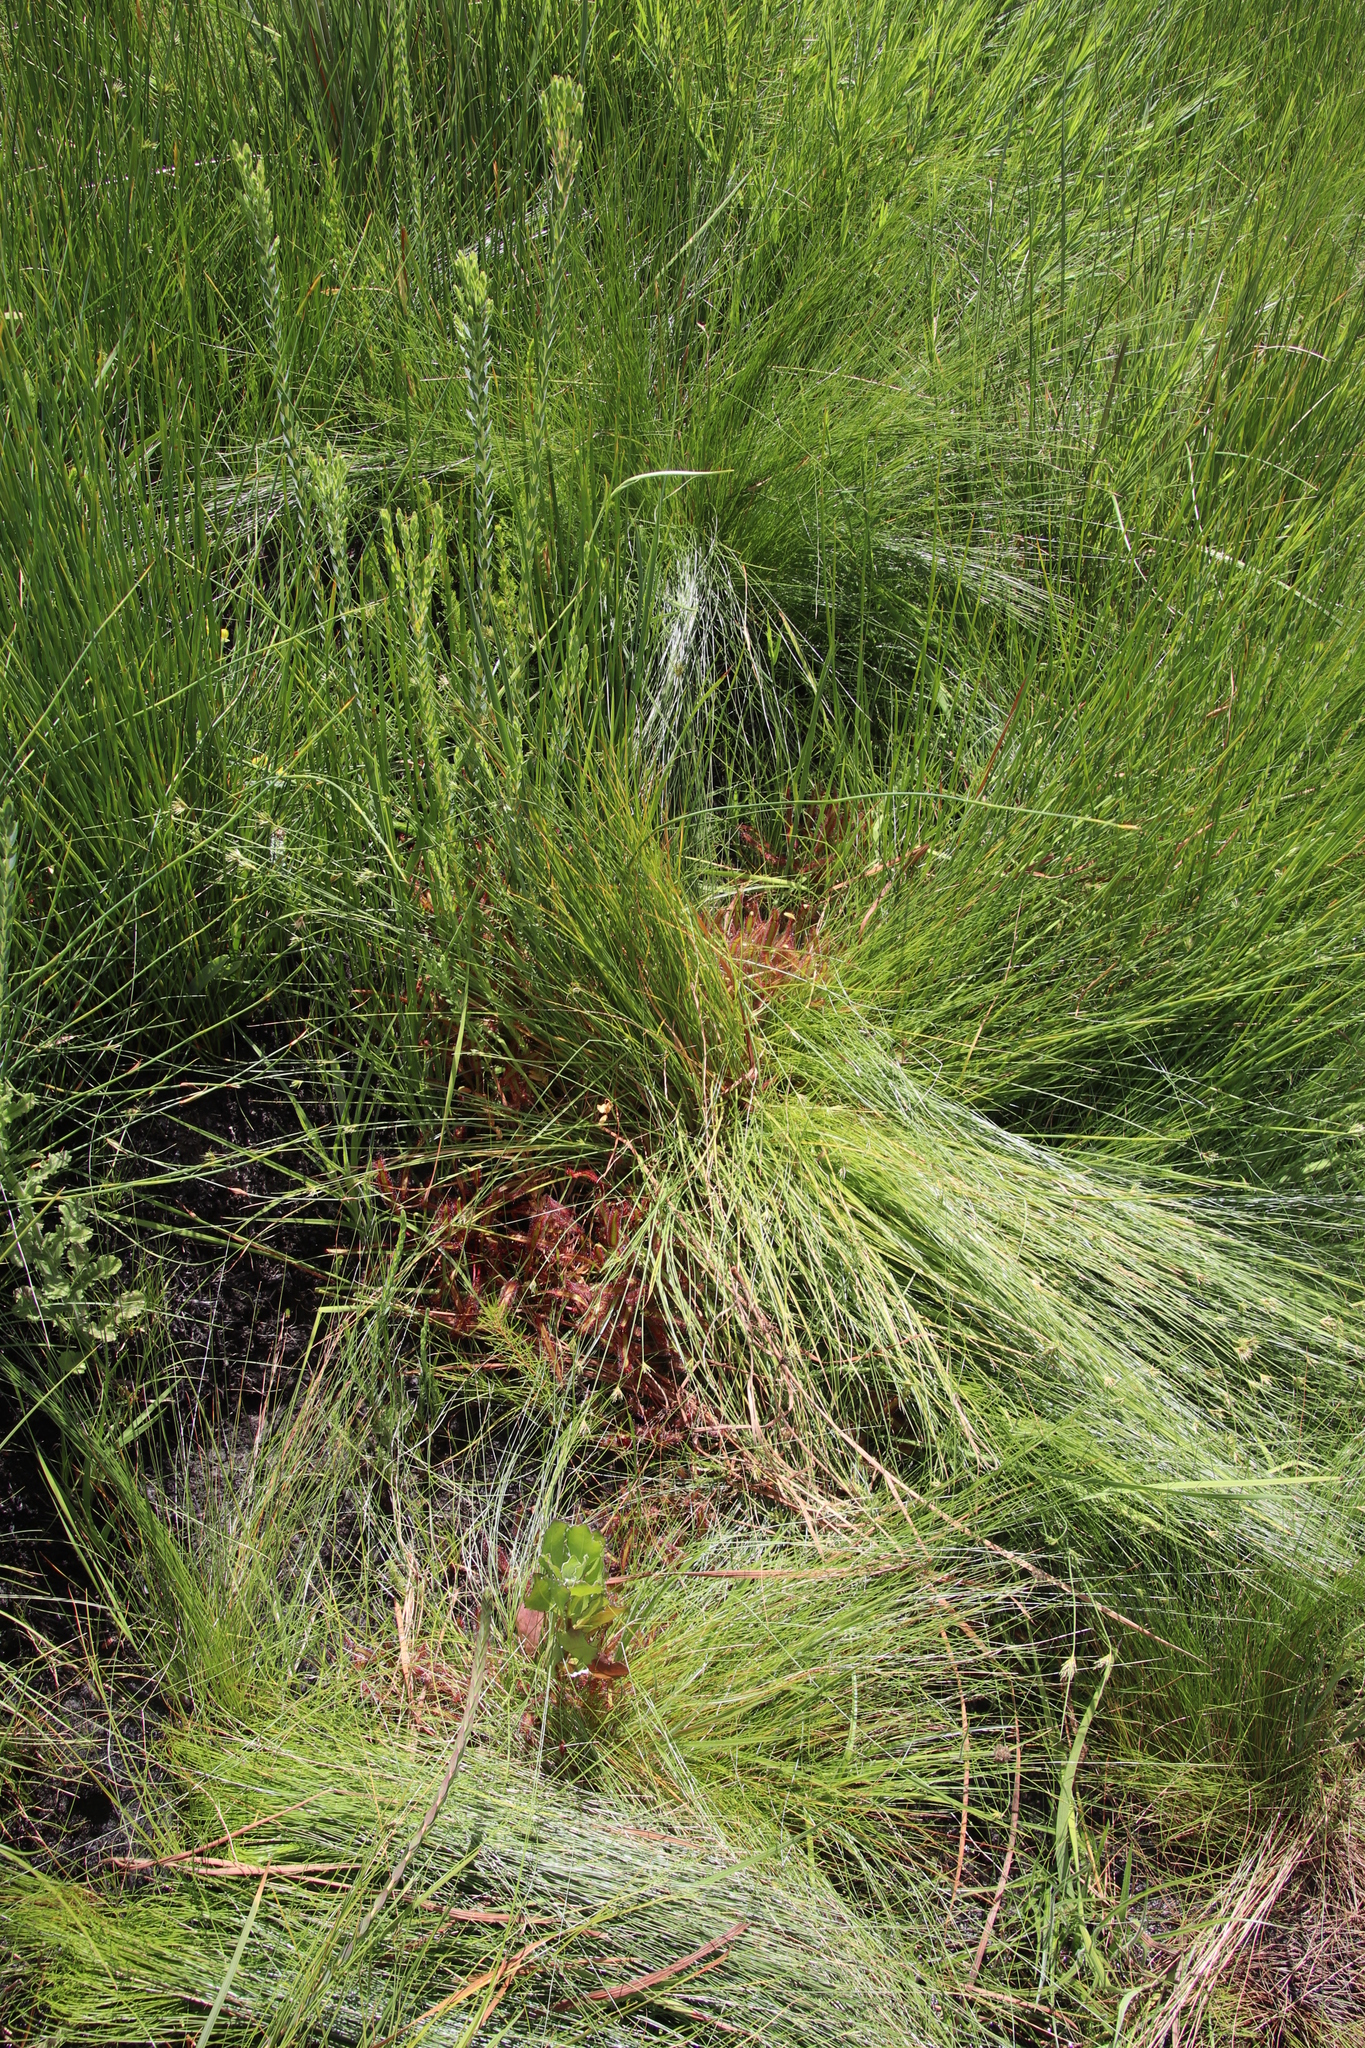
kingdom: Plantae
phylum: Tracheophyta
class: Magnoliopsida
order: Caryophyllales
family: Droseraceae
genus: Drosera
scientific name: Drosera capensis
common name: Cape sundew
